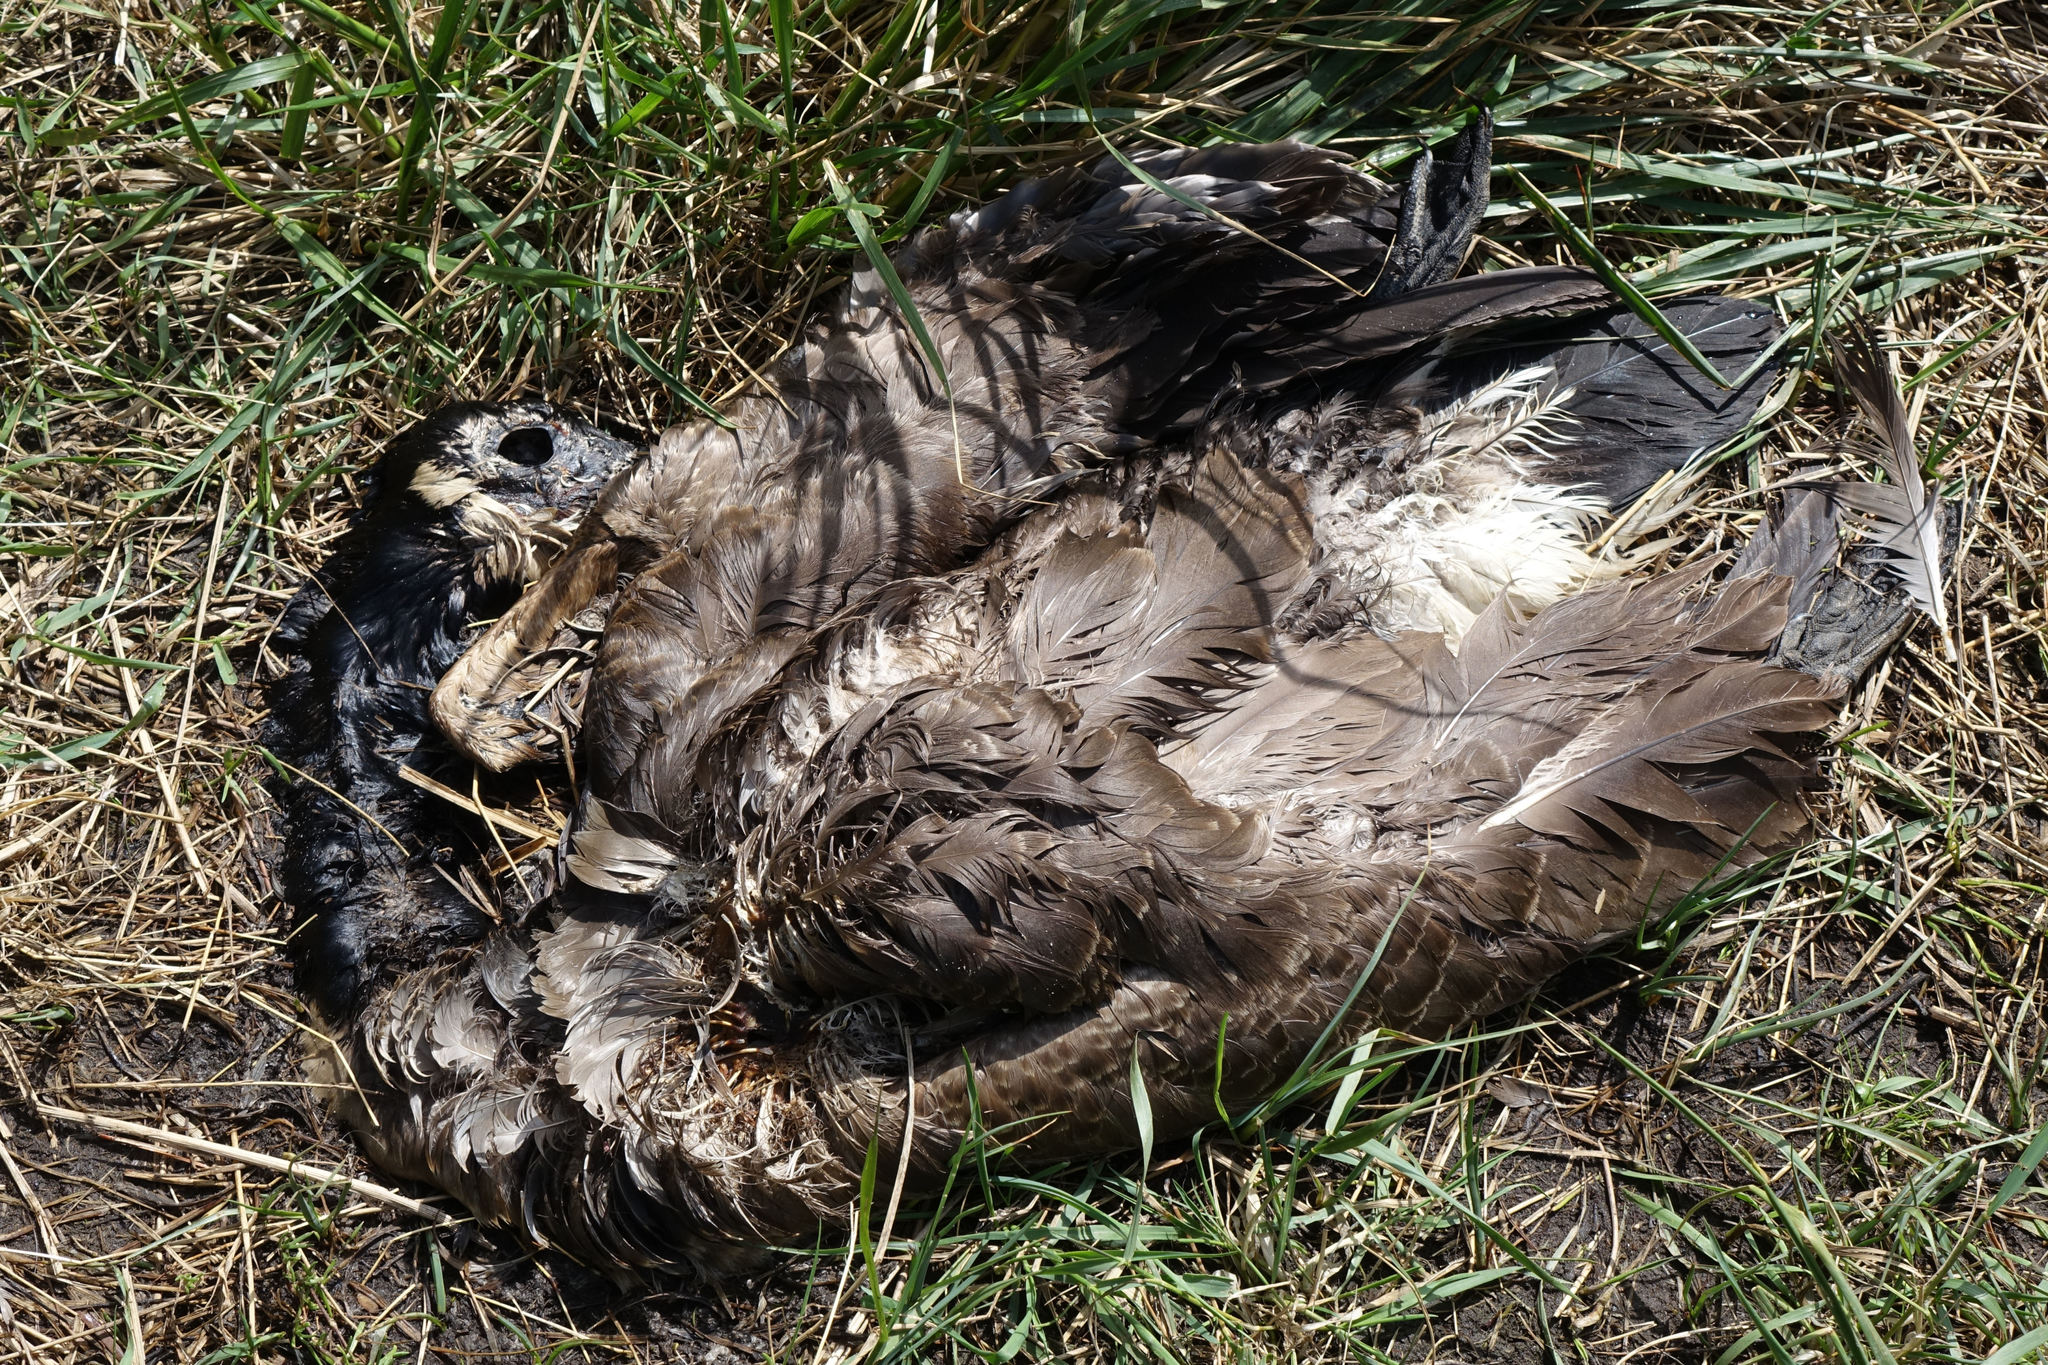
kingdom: Animalia
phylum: Chordata
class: Aves
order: Anseriformes
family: Anatidae
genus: Branta
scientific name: Branta canadensis
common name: Canada goose
